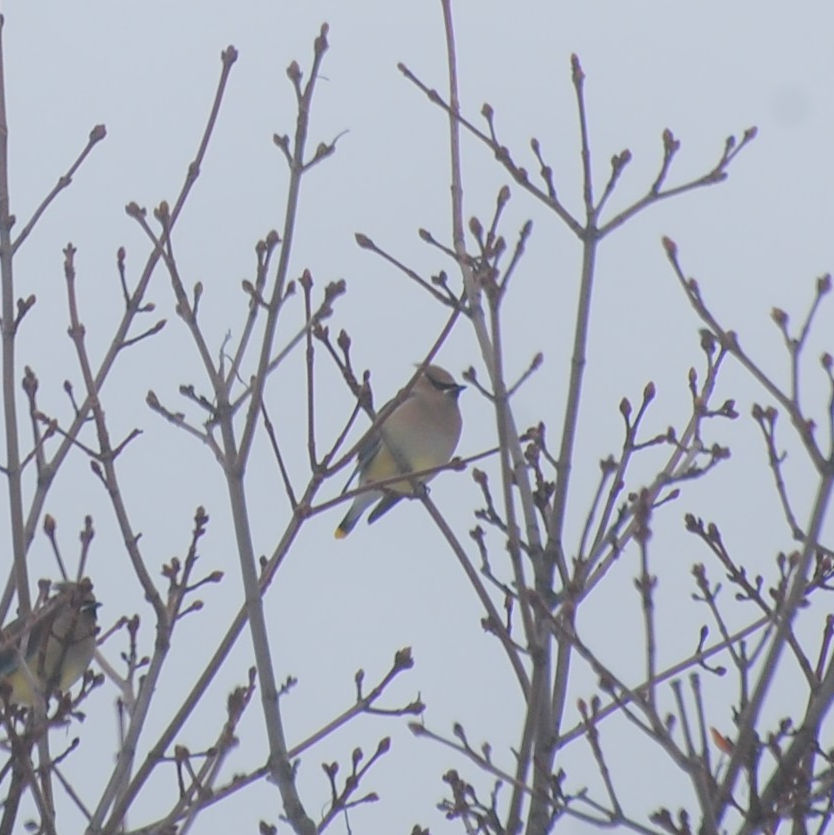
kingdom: Animalia
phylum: Chordata
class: Aves
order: Passeriformes
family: Bombycillidae
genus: Bombycilla
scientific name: Bombycilla cedrorum
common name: Cedar waxwing
